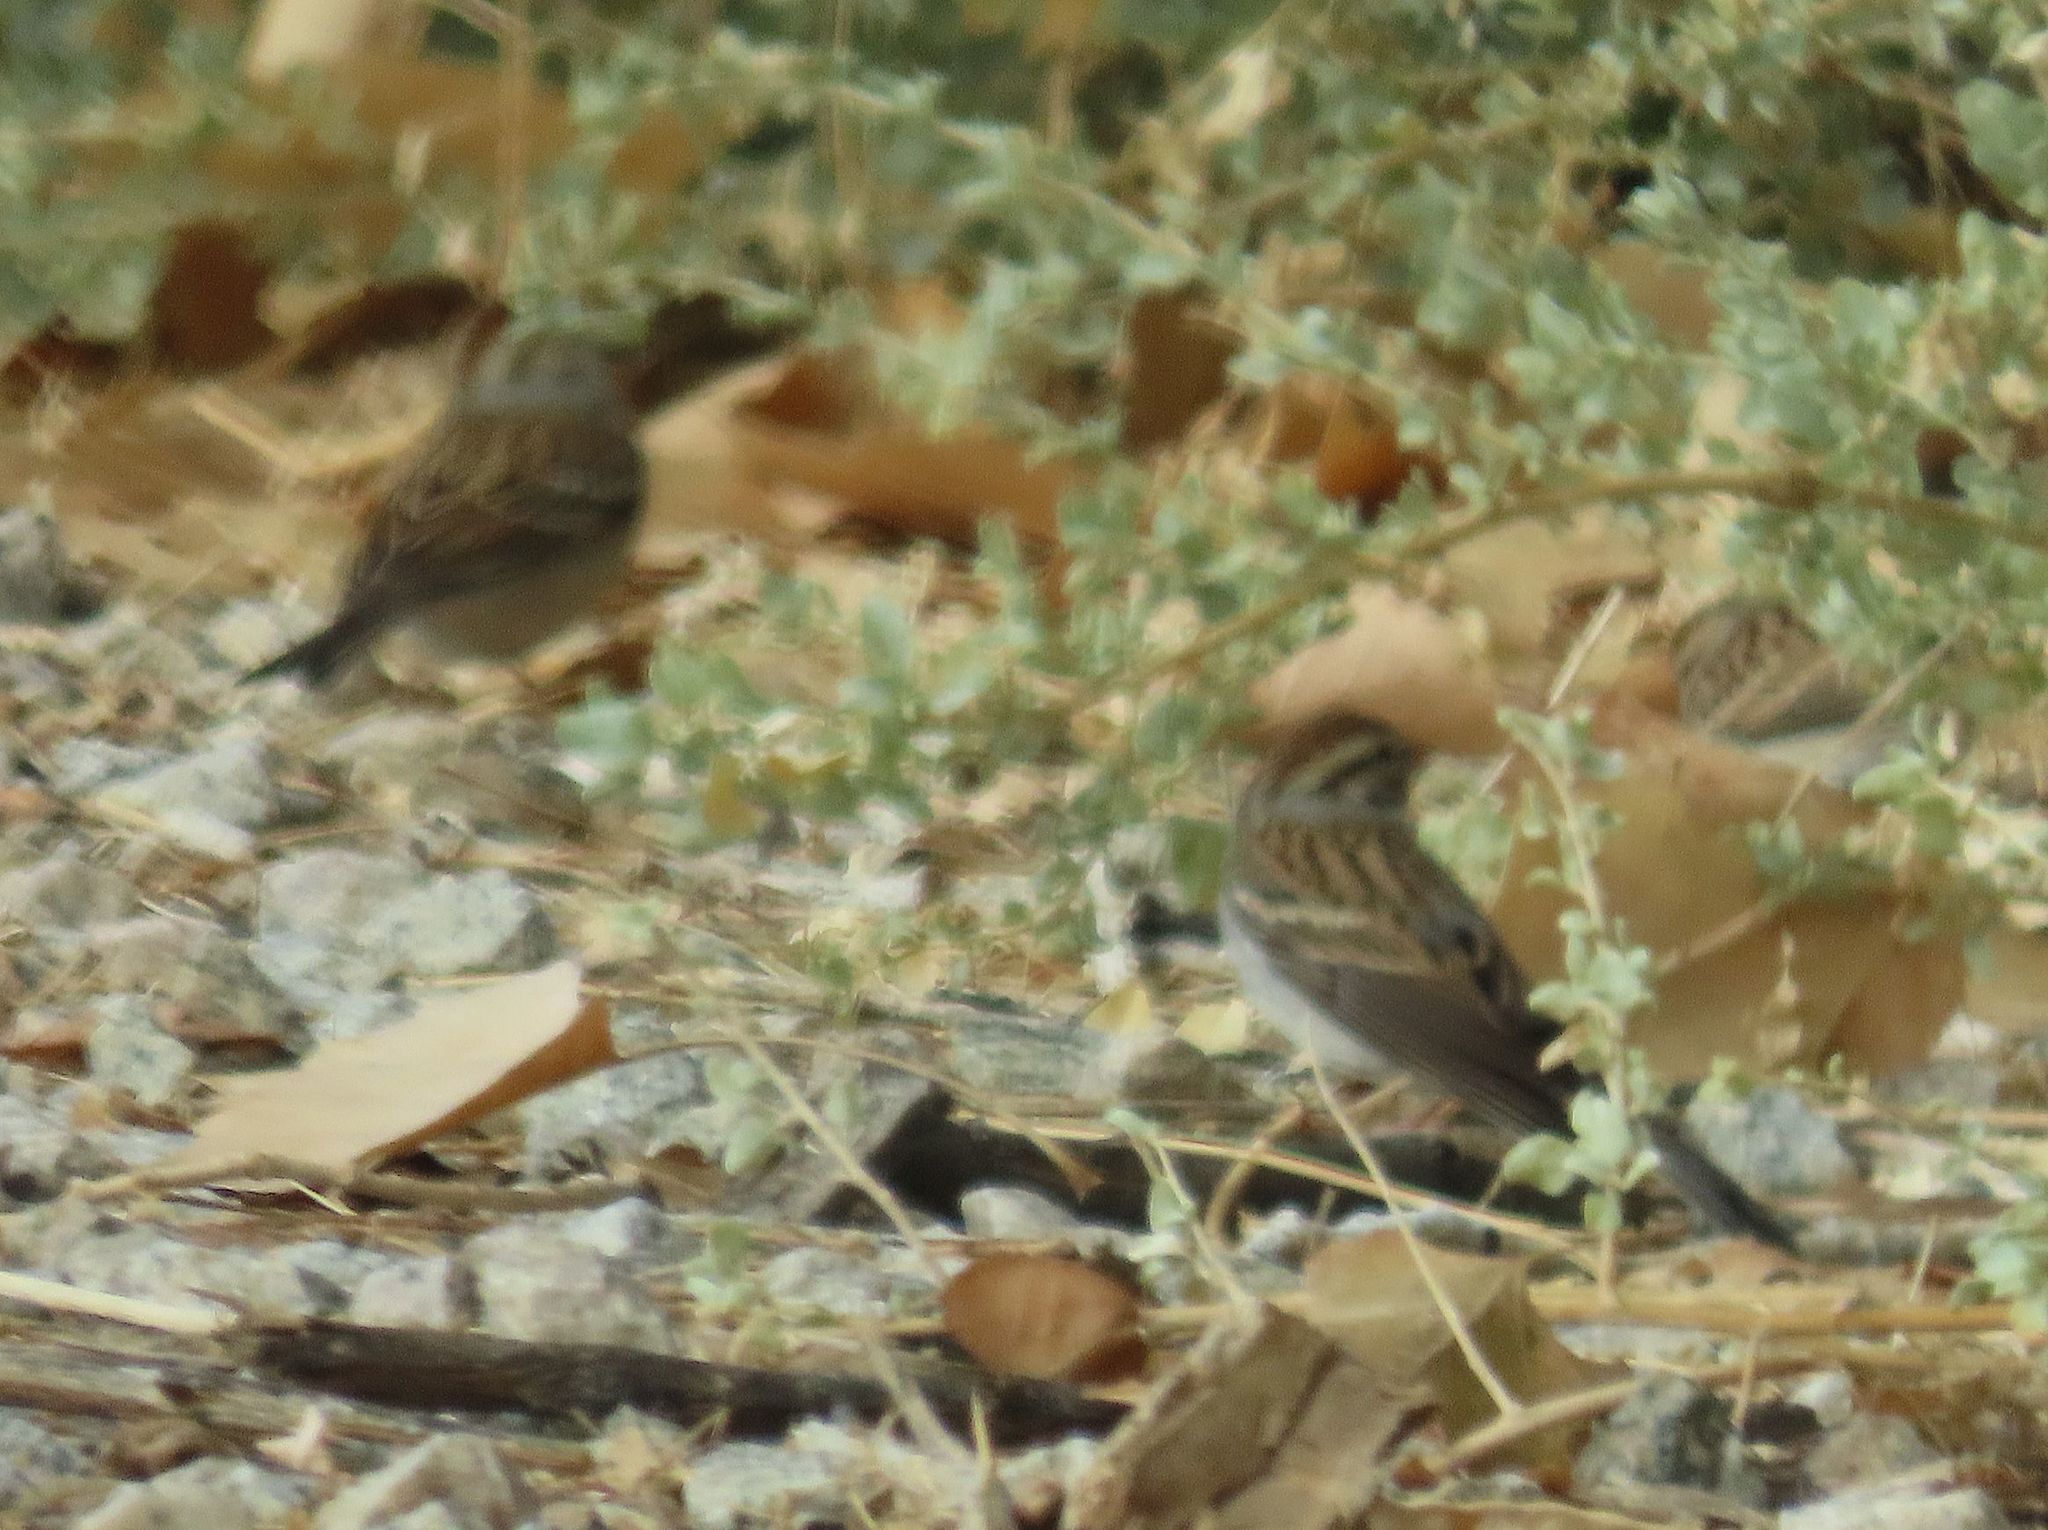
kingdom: Animalia
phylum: Chordata
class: Aves
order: Passeriformes
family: Passerellidae
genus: Spizella
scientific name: Spizella passerina
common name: Chipping sparrow
